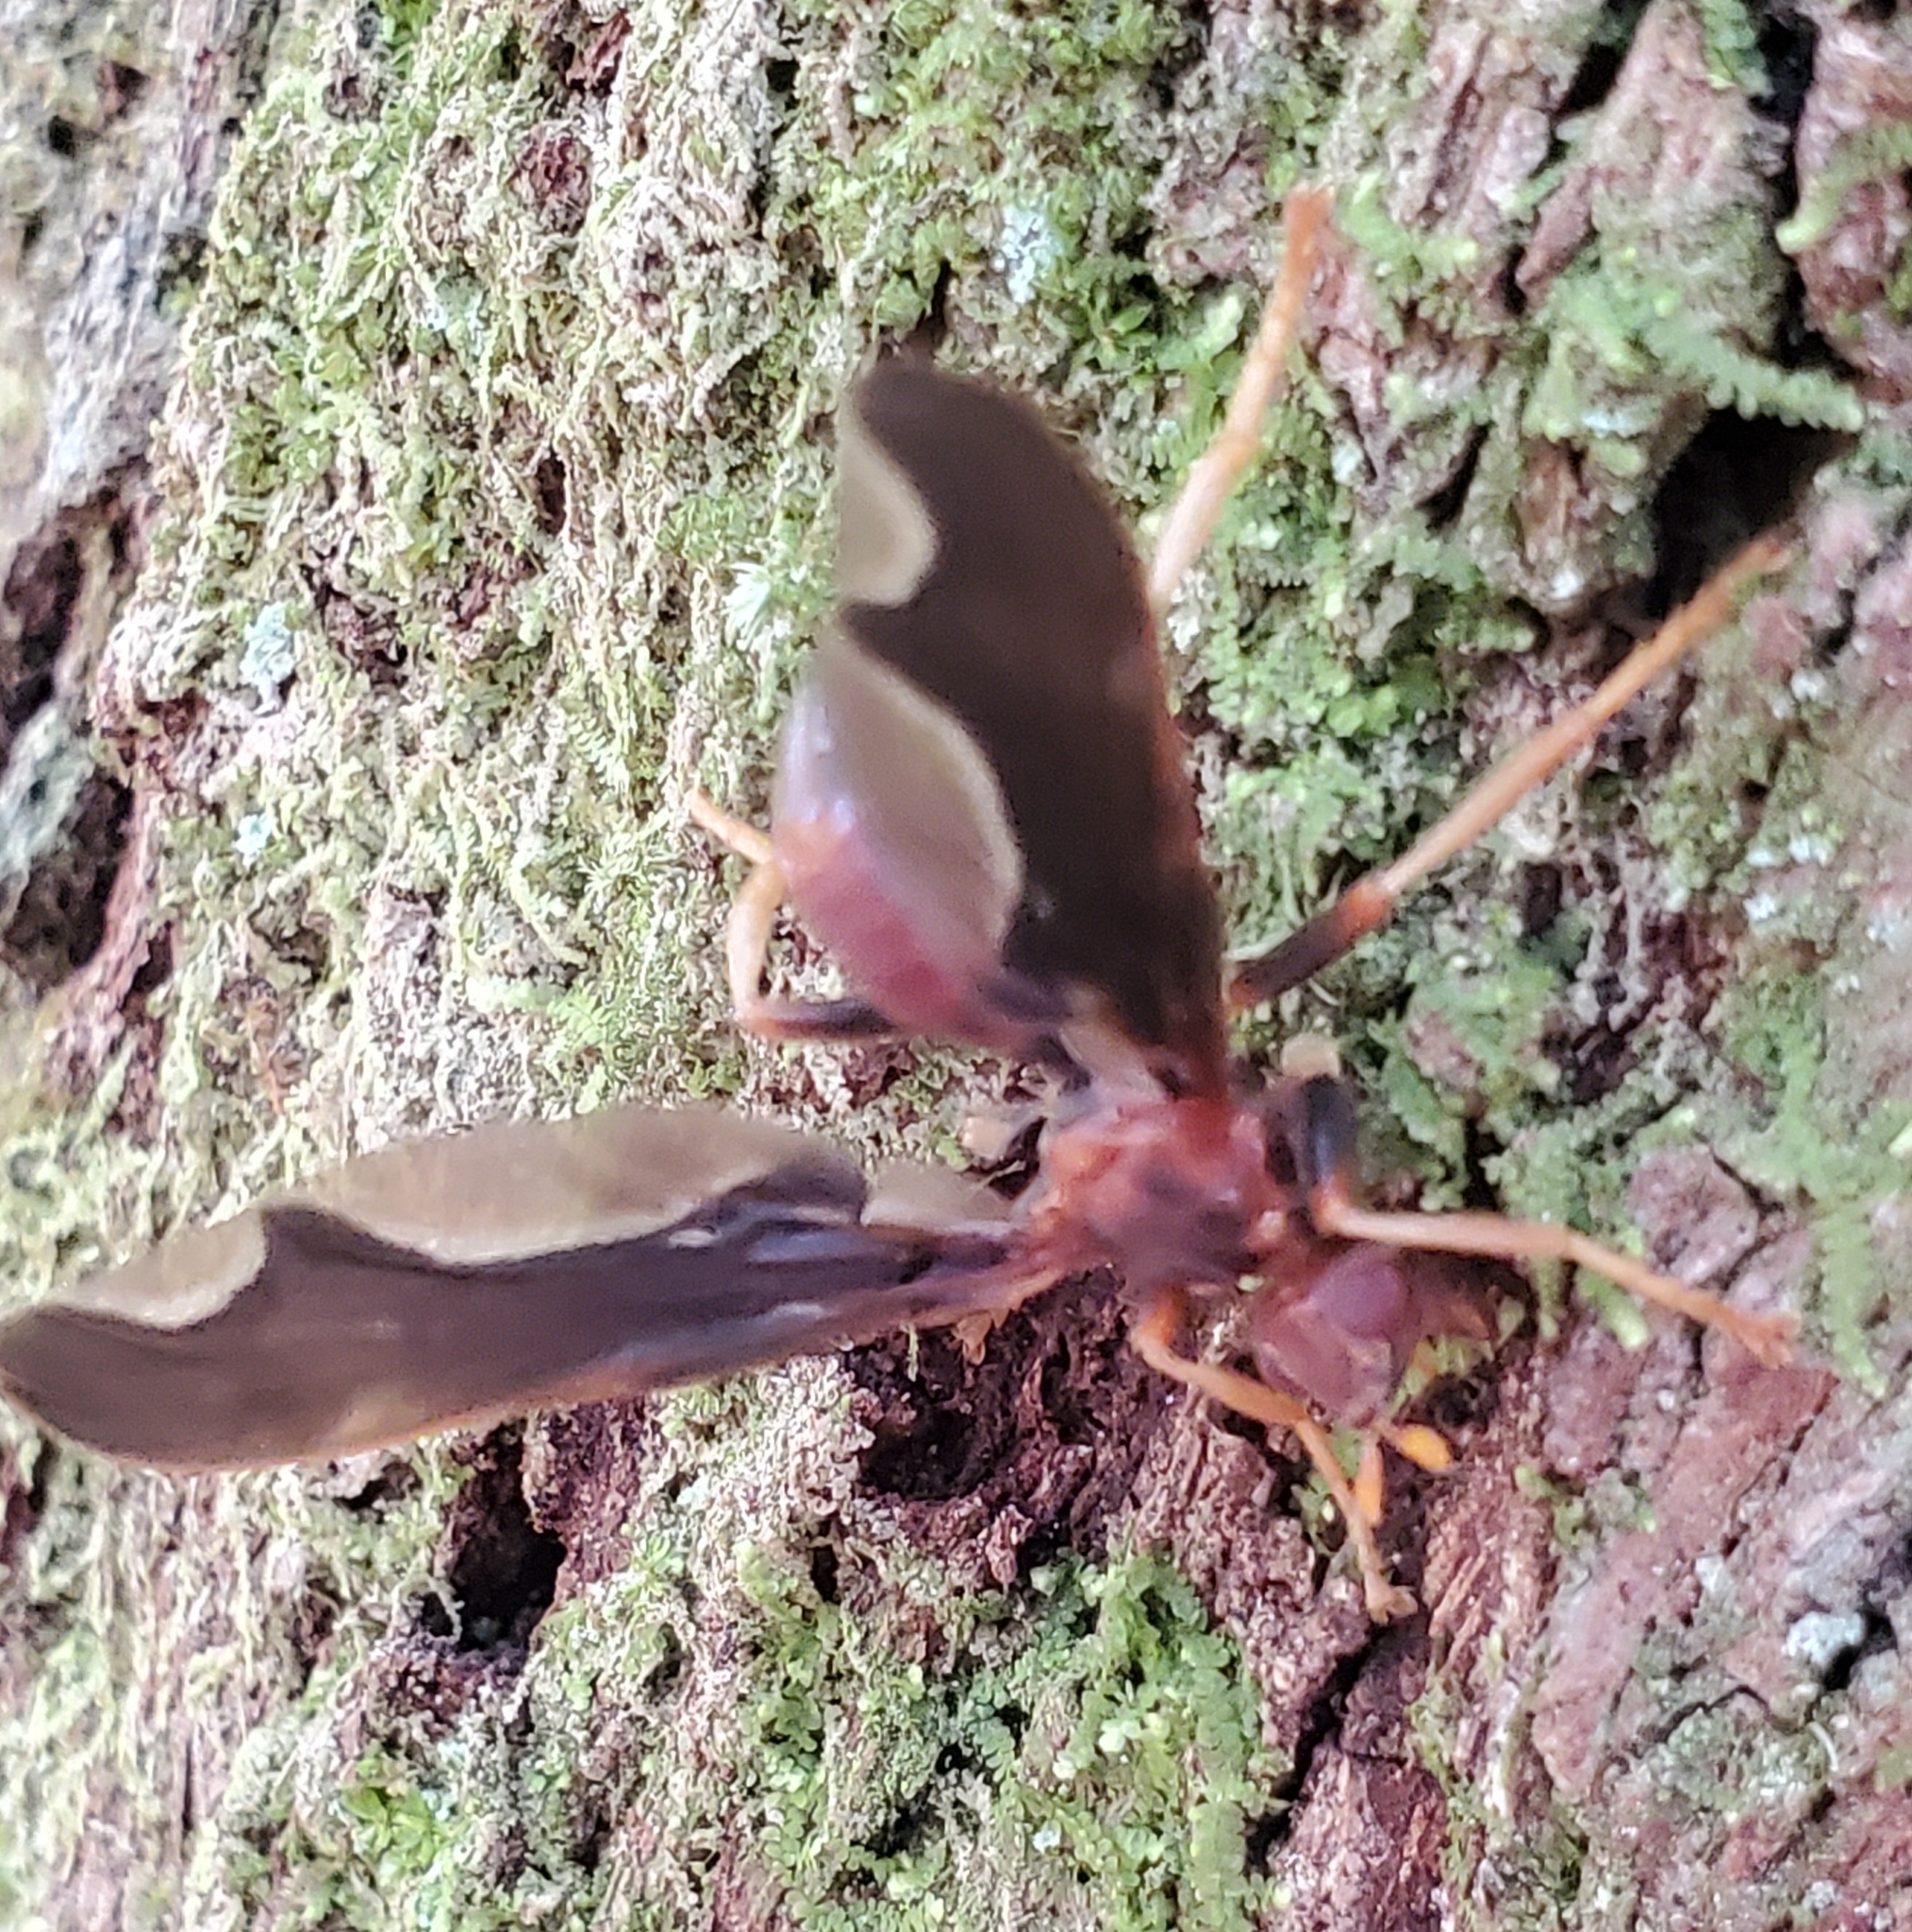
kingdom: Animalia
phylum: Arthropoda
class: Insecta
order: Diptera
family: Pyrgotidae
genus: Pyrgota
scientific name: Pyrgota undata
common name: Waved light fly
